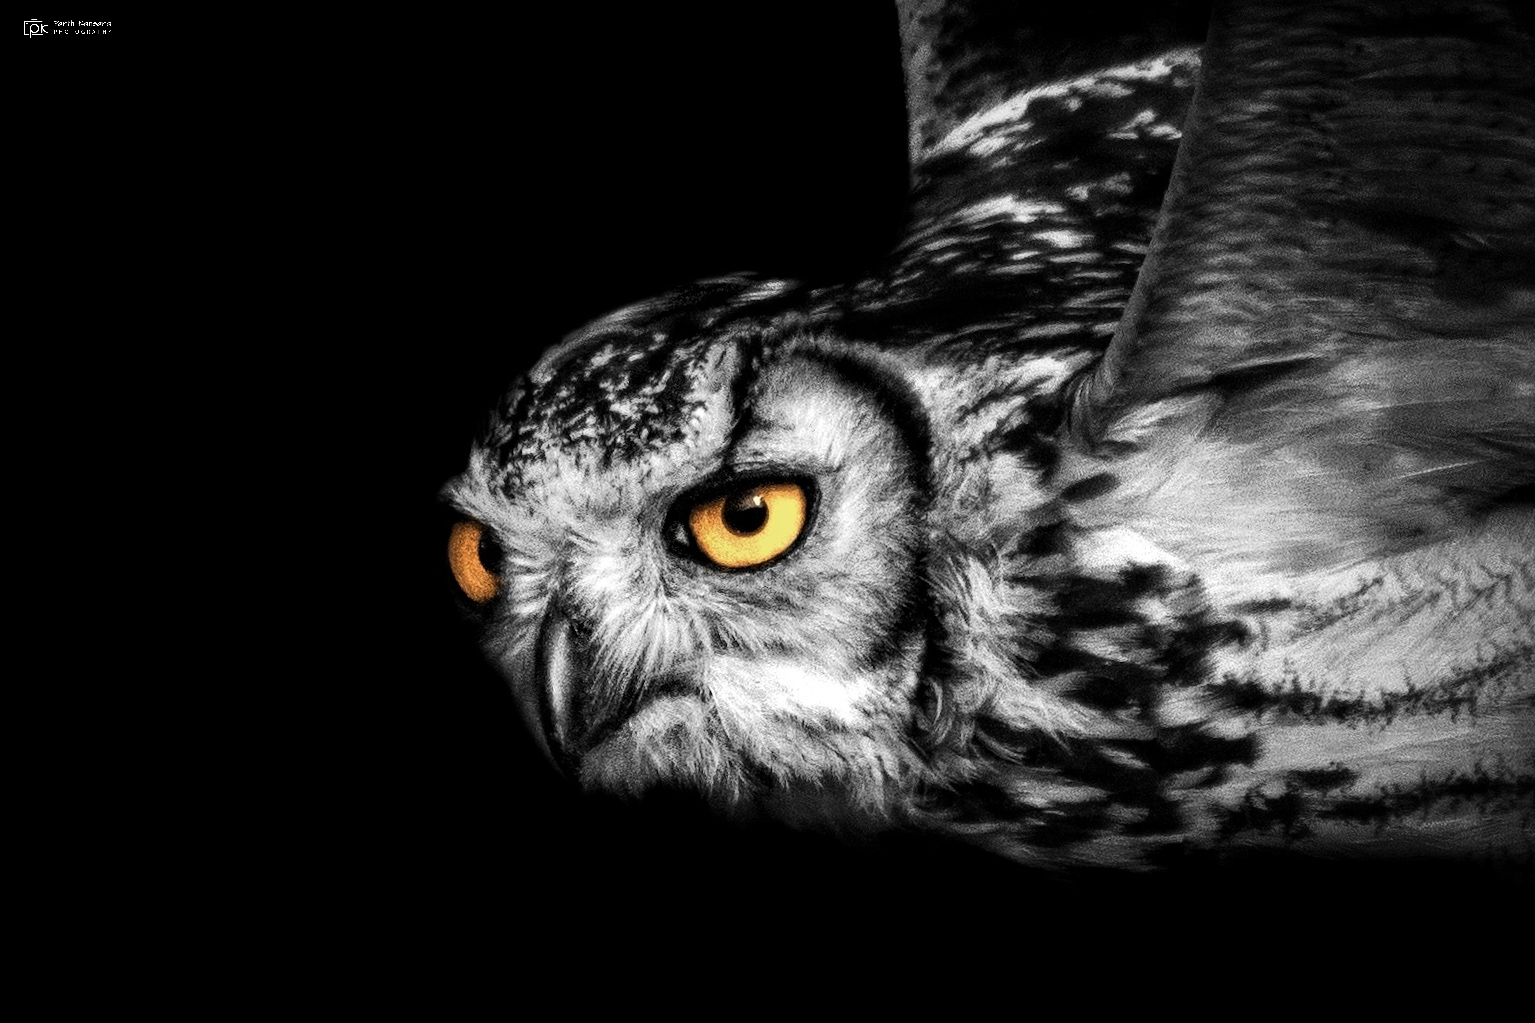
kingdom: Animalia
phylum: Chordata
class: Aves
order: Strigiformes
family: Strigidae
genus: Bubo
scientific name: Bubo bengalensis
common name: Indian eagle-owl
